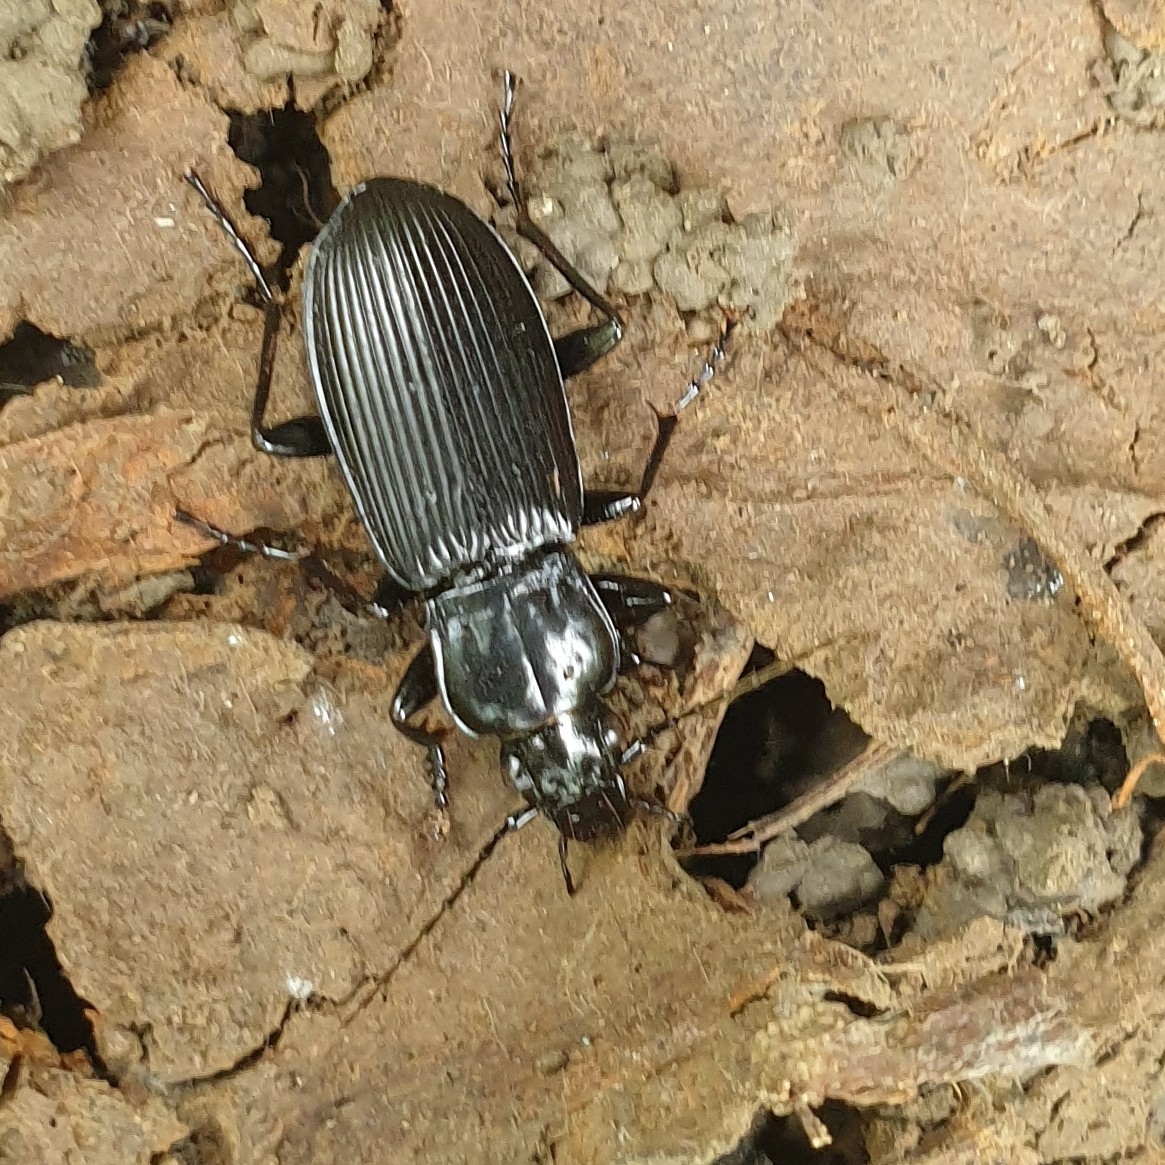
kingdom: Animalia
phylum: Arthropoda
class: Insecta
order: Coleoptera
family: Carabidae
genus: Pterostichus
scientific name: Pterostichus niger
